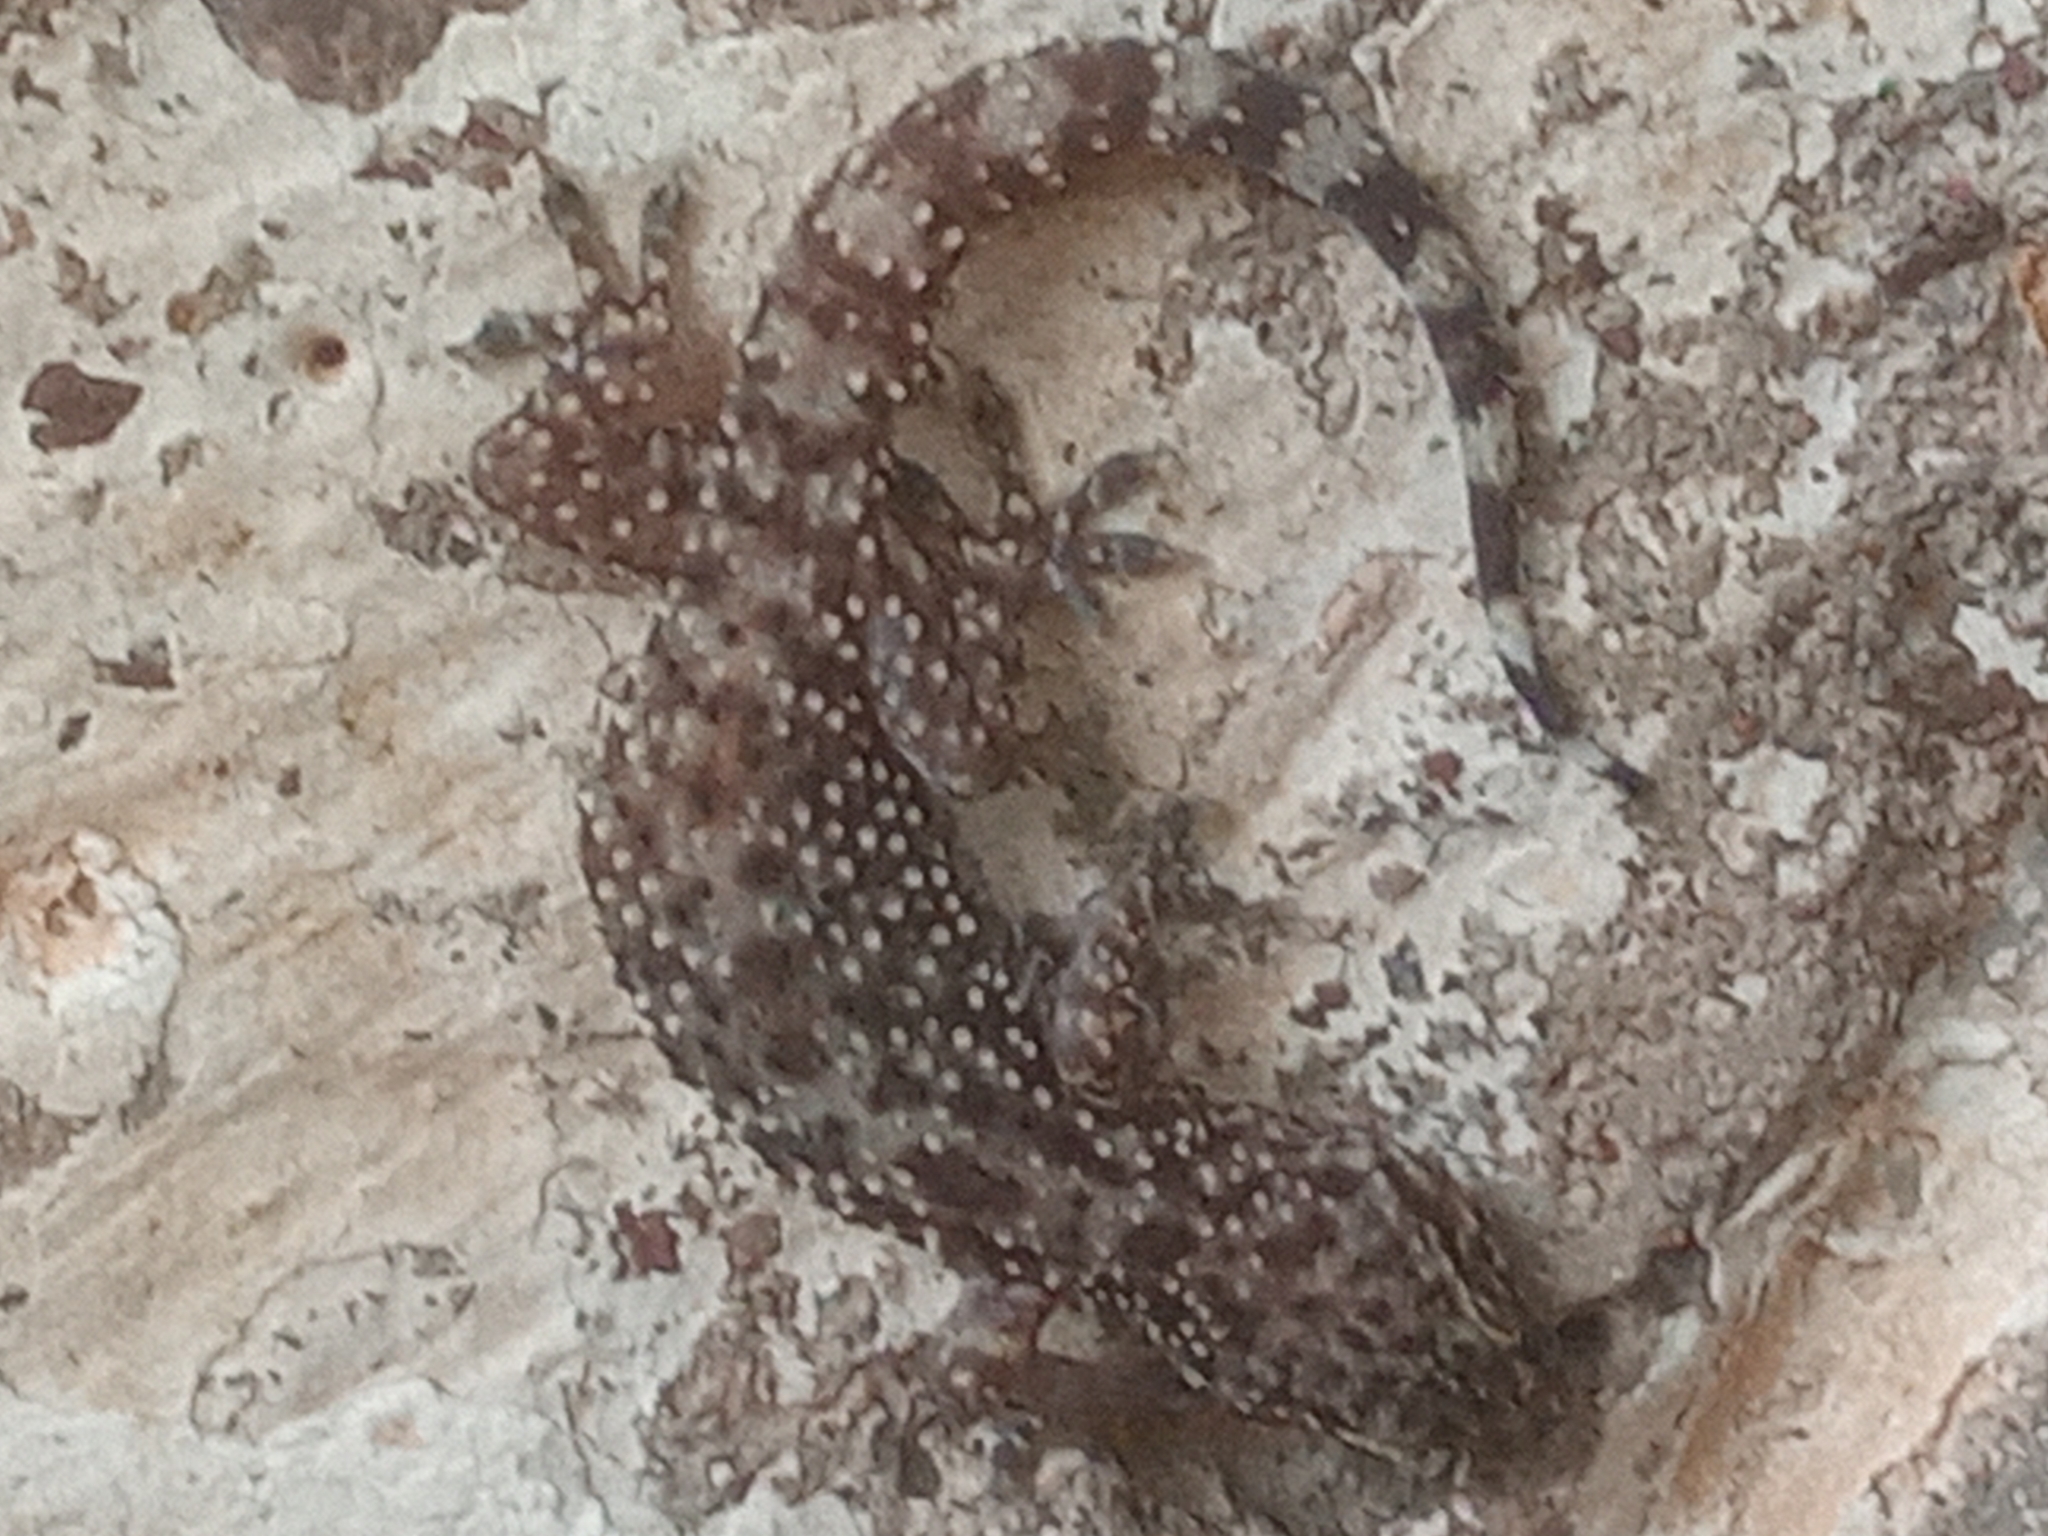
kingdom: Animalia
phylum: Chordata
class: Squamata
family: Gekkonidae
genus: Hemidactylus
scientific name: Hemidactylus turcicus
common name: Turkish gecko
